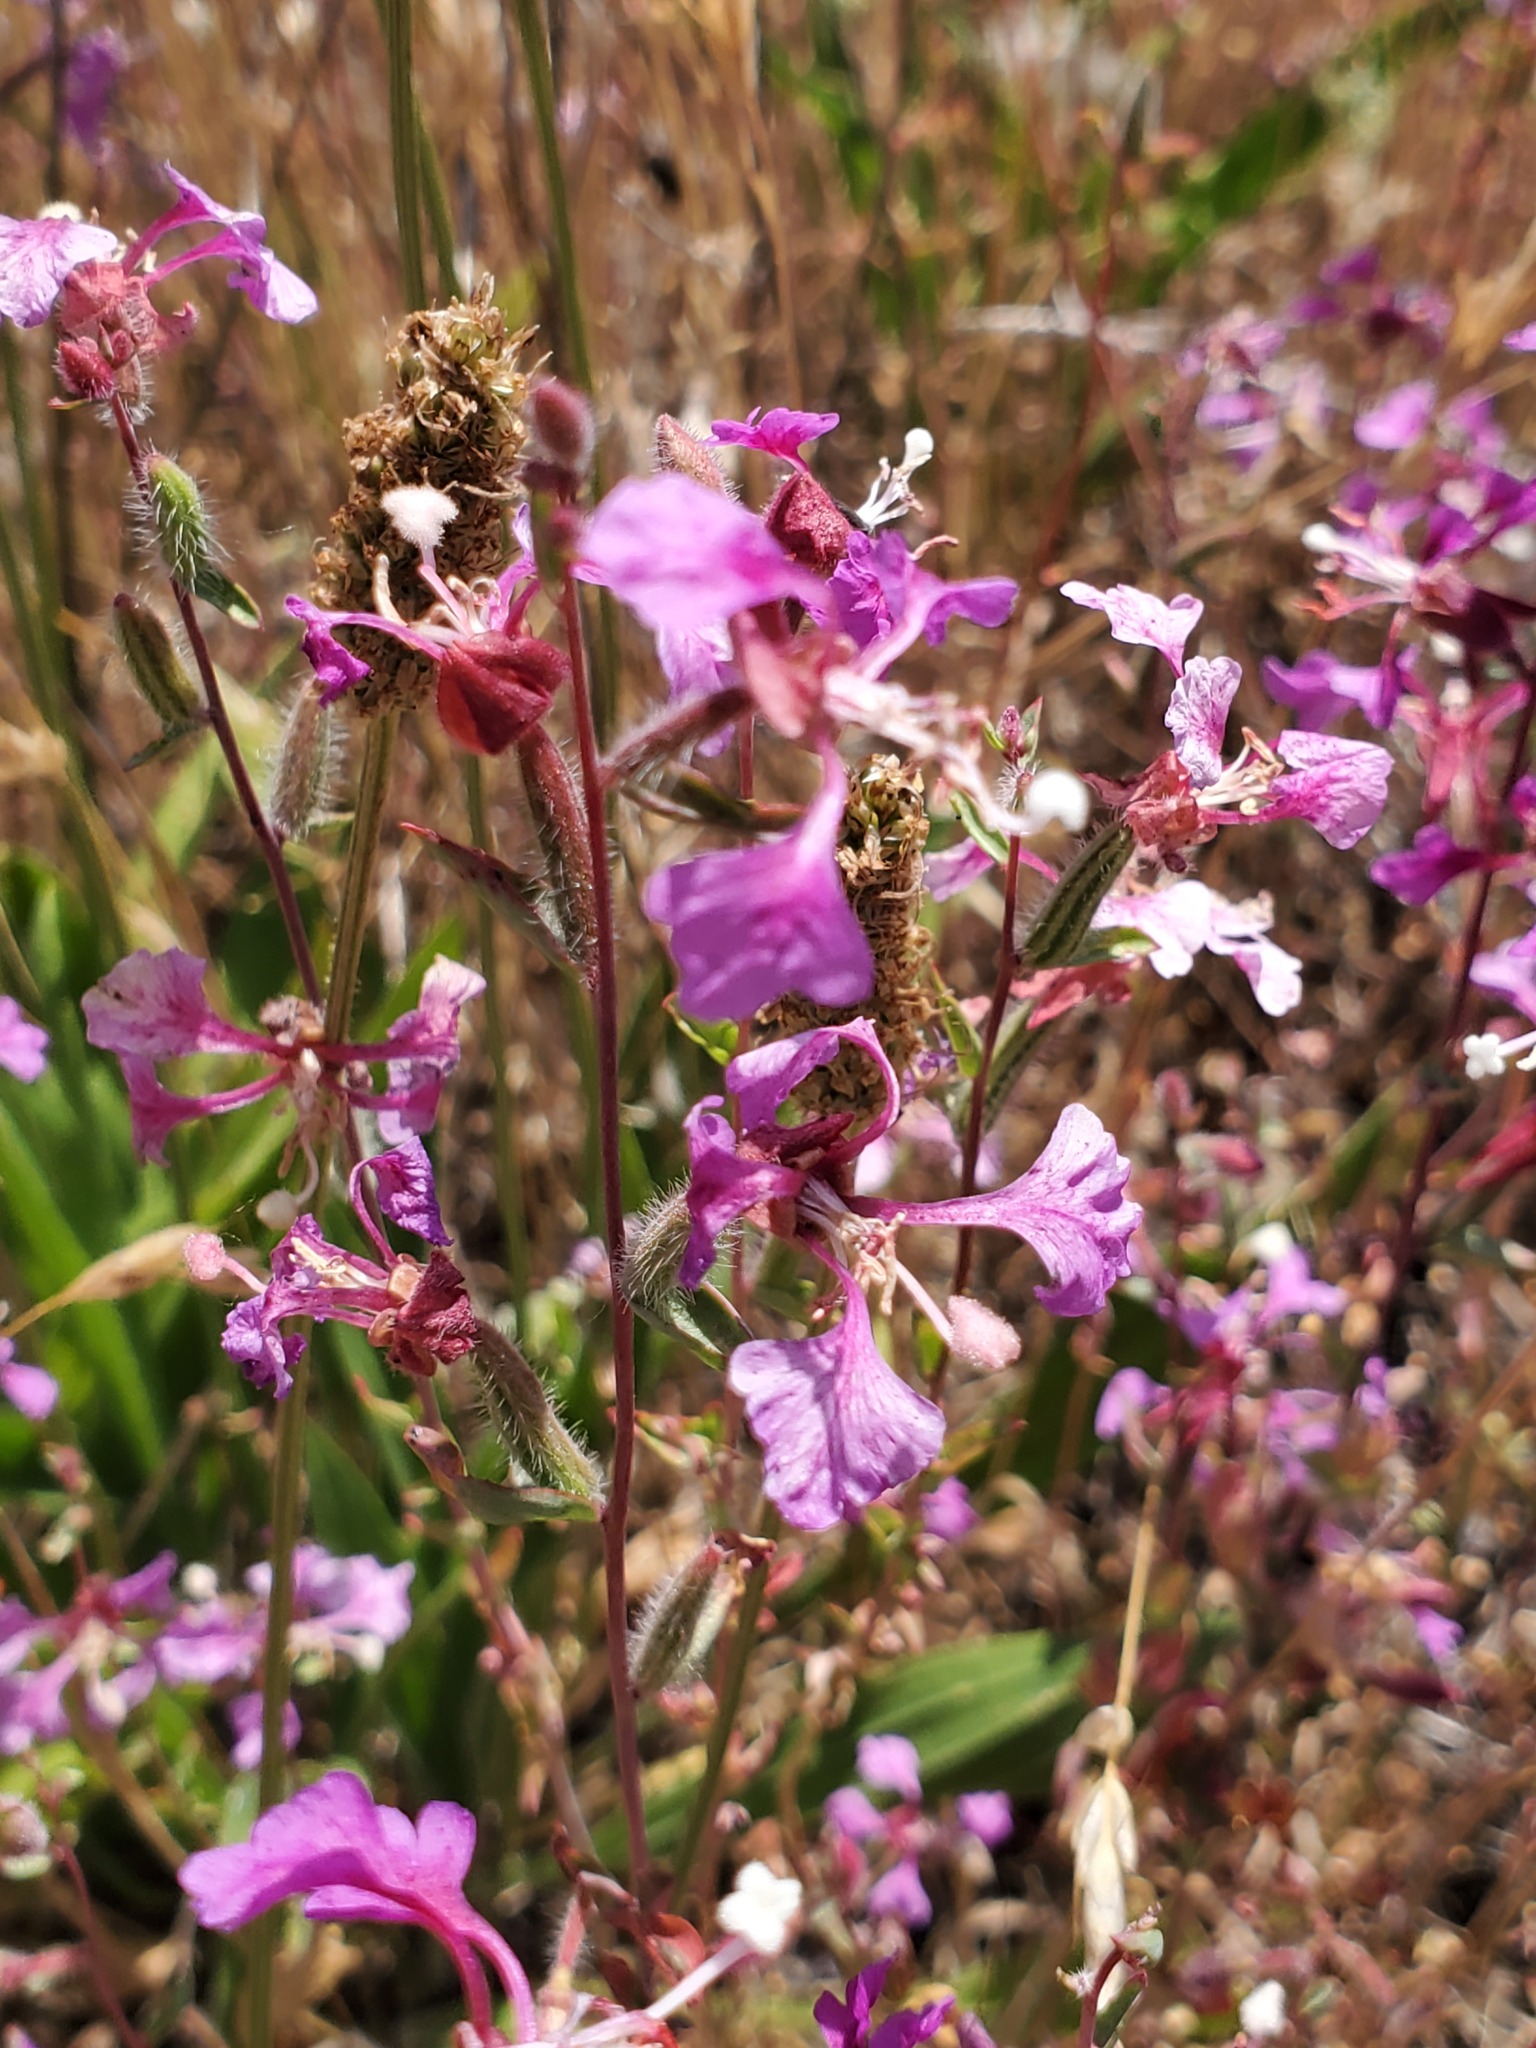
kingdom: Plantae
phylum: Tracheophyta
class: Magnoliopsida
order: Myrtales
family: Onagraceae
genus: Clarkia
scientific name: Clarkia unguiculata
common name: Clarkia
